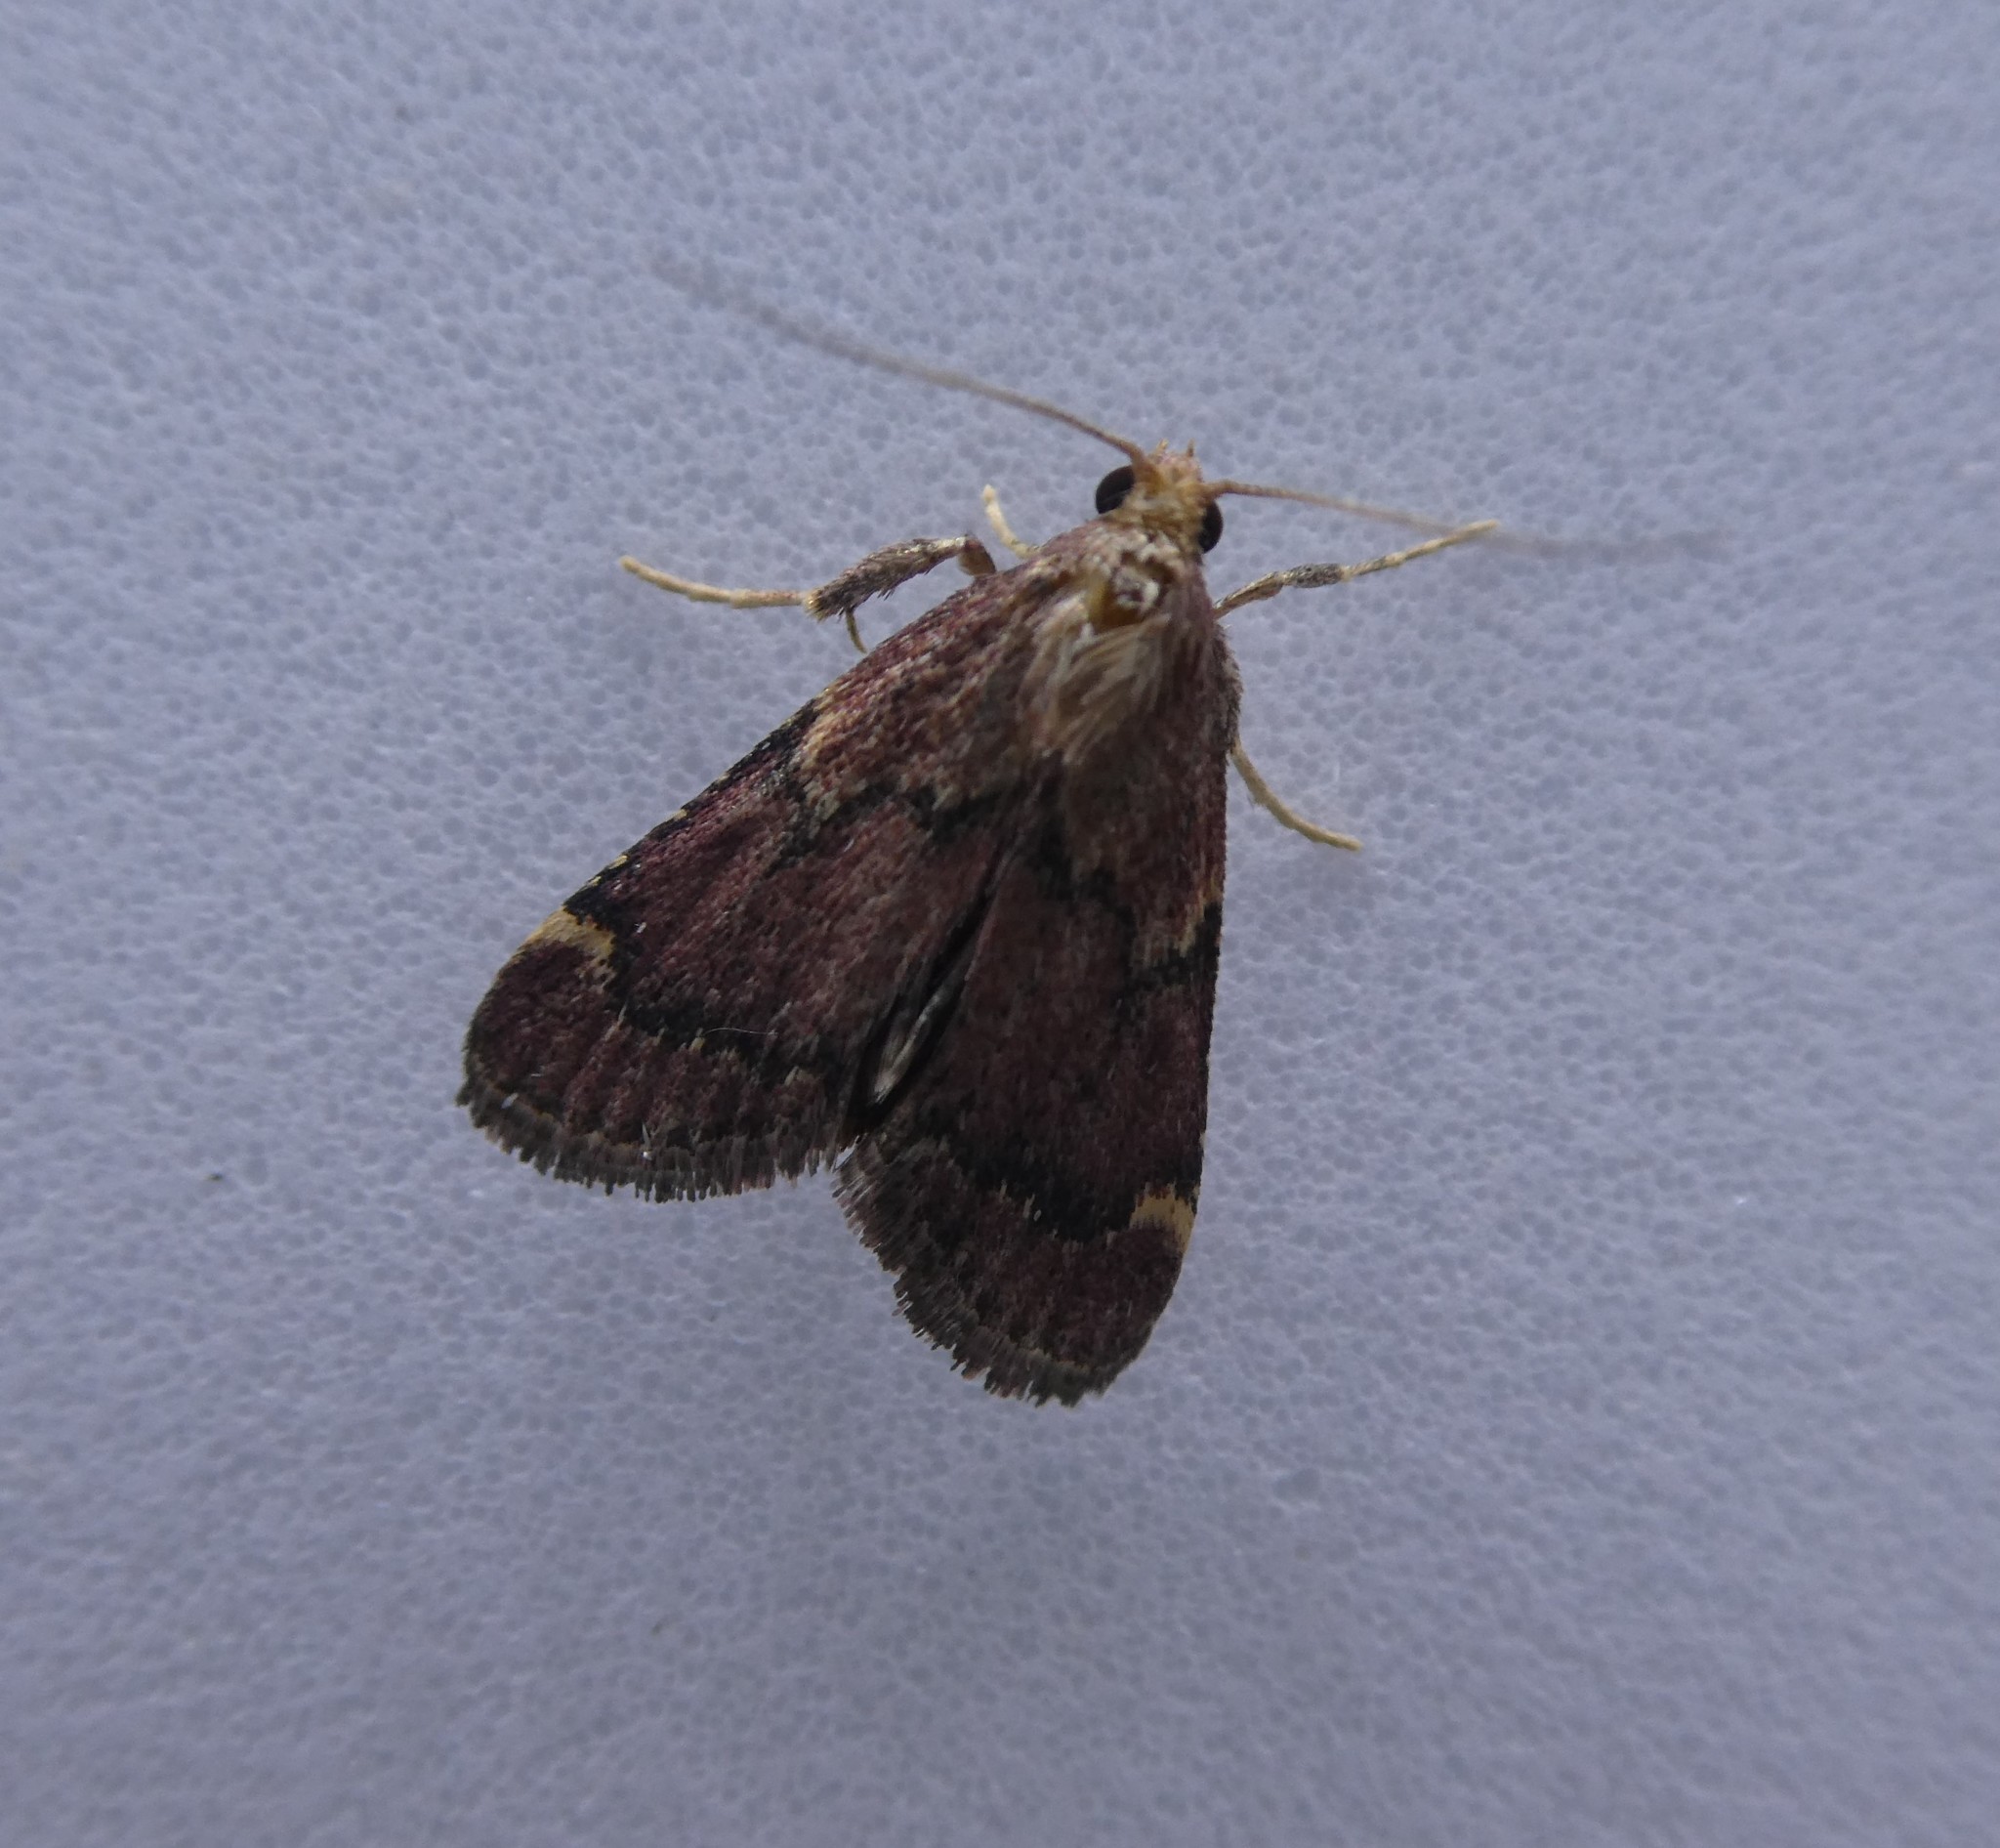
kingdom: Animalia
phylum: Arthropoda
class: Insecta
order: Lepidoptera
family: Pyralidae
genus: Hypsopygia
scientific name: Hypsopygia intermedialis
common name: Red-shawled moth
